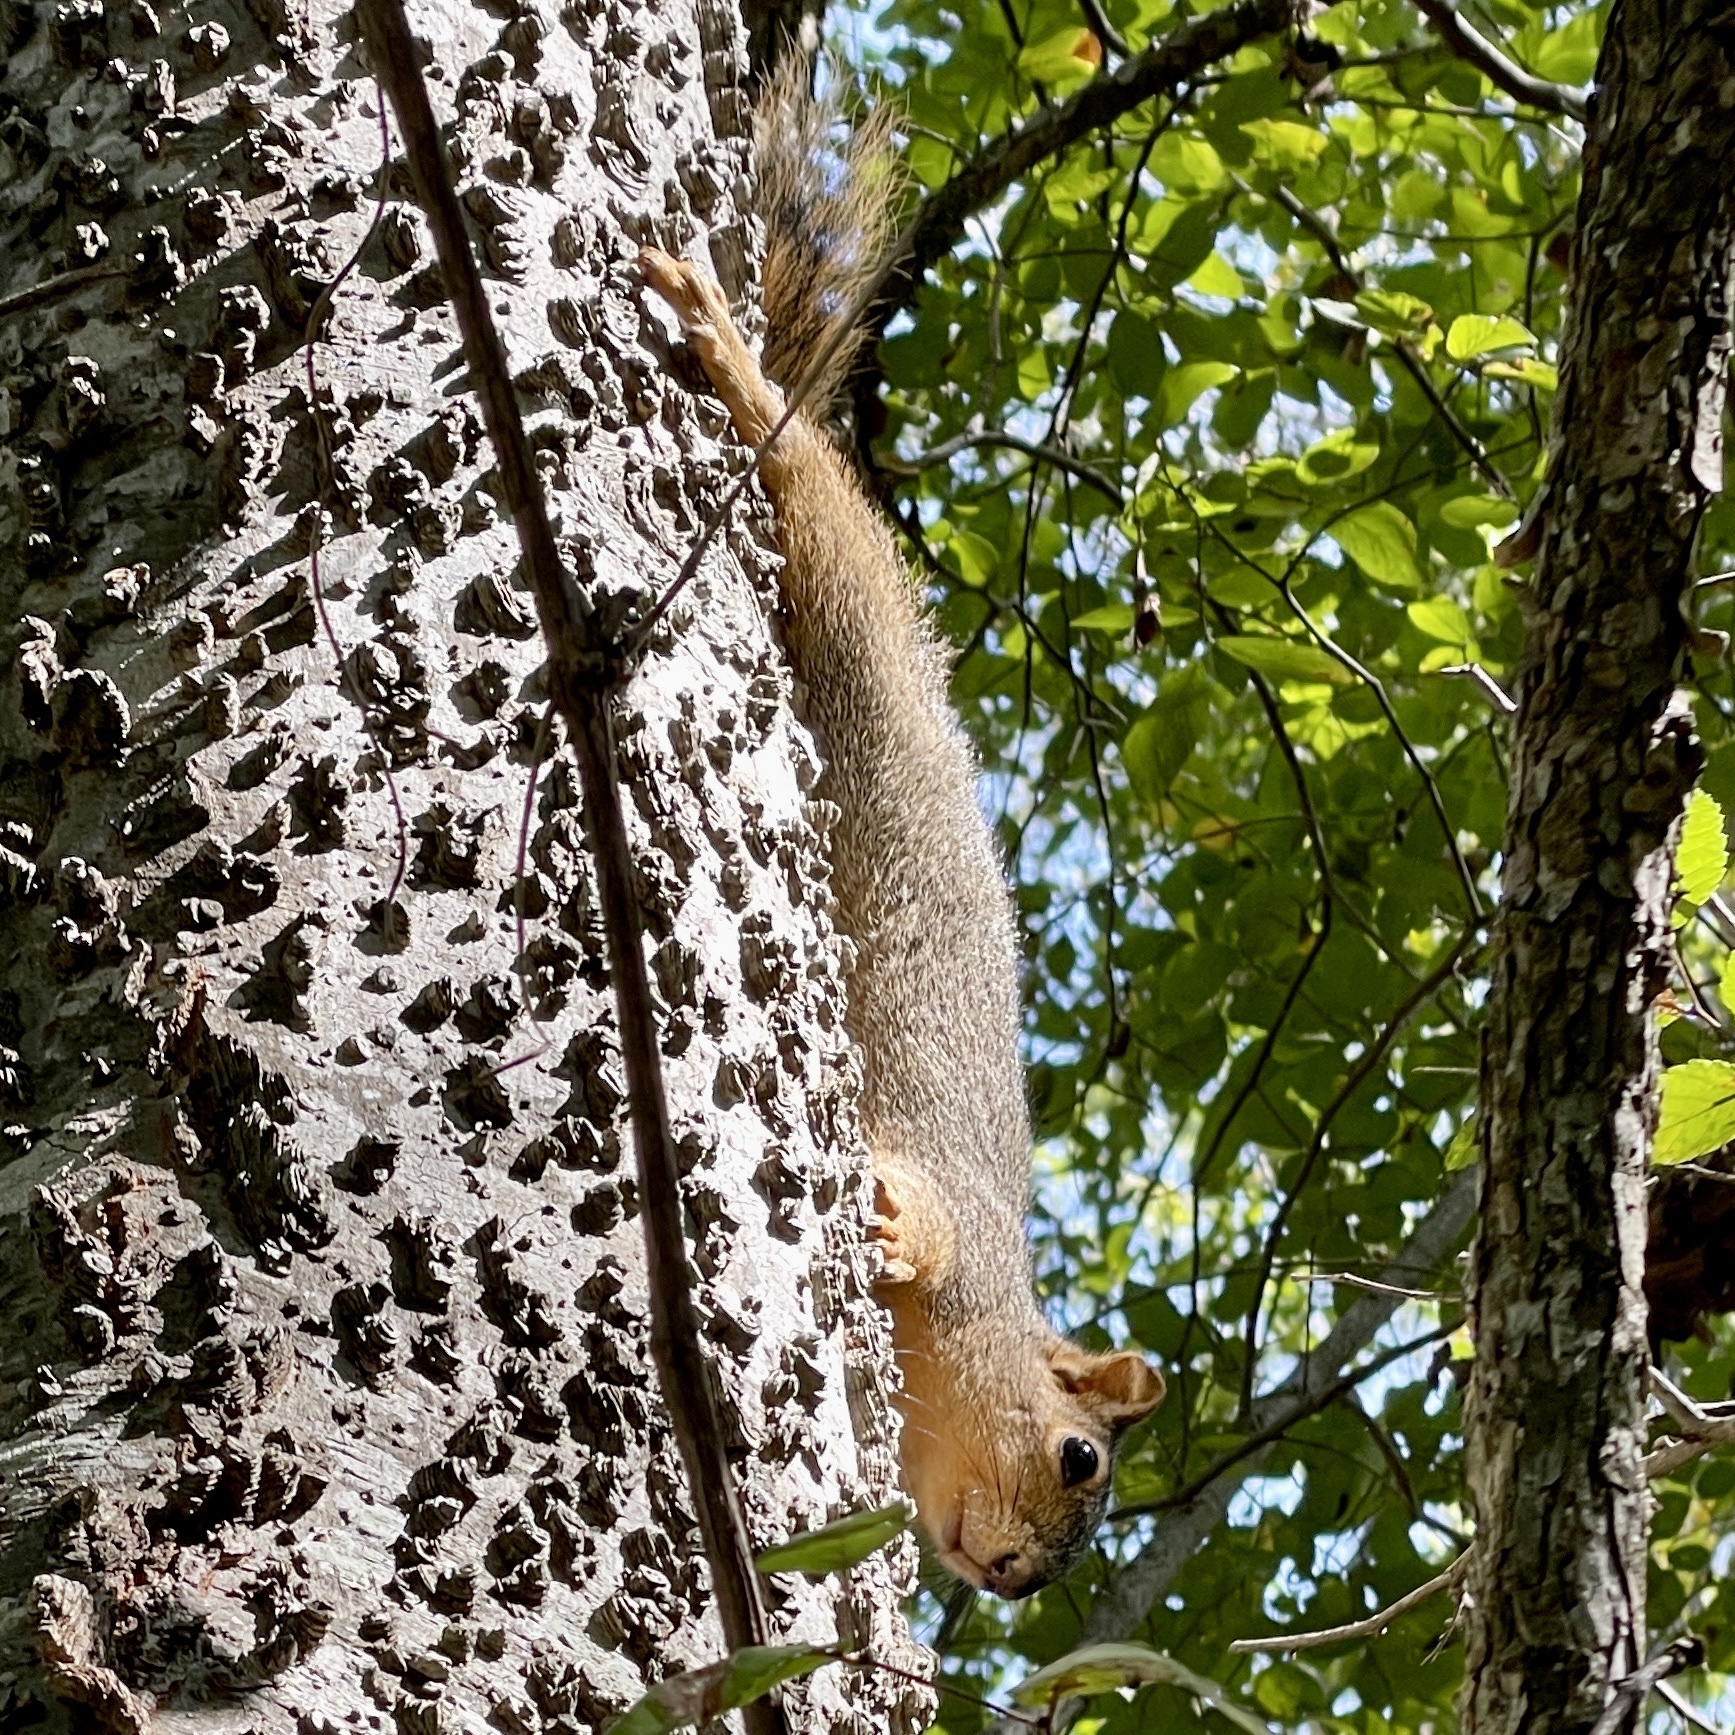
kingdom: Animalia
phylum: Chordata
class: Mammalia
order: Rodentia
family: Sciuridae
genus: Sciurus
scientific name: Sciurus niger
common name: Fox squirrel
